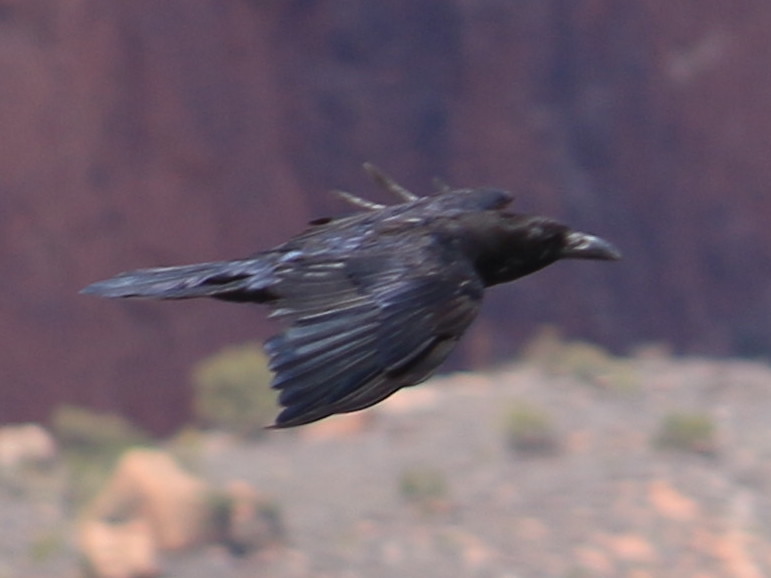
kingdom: Animalia
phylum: Chordata
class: Aves
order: Passeriformes
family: Corvidae
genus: Corvus
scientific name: Corvus corax
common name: Common raven
